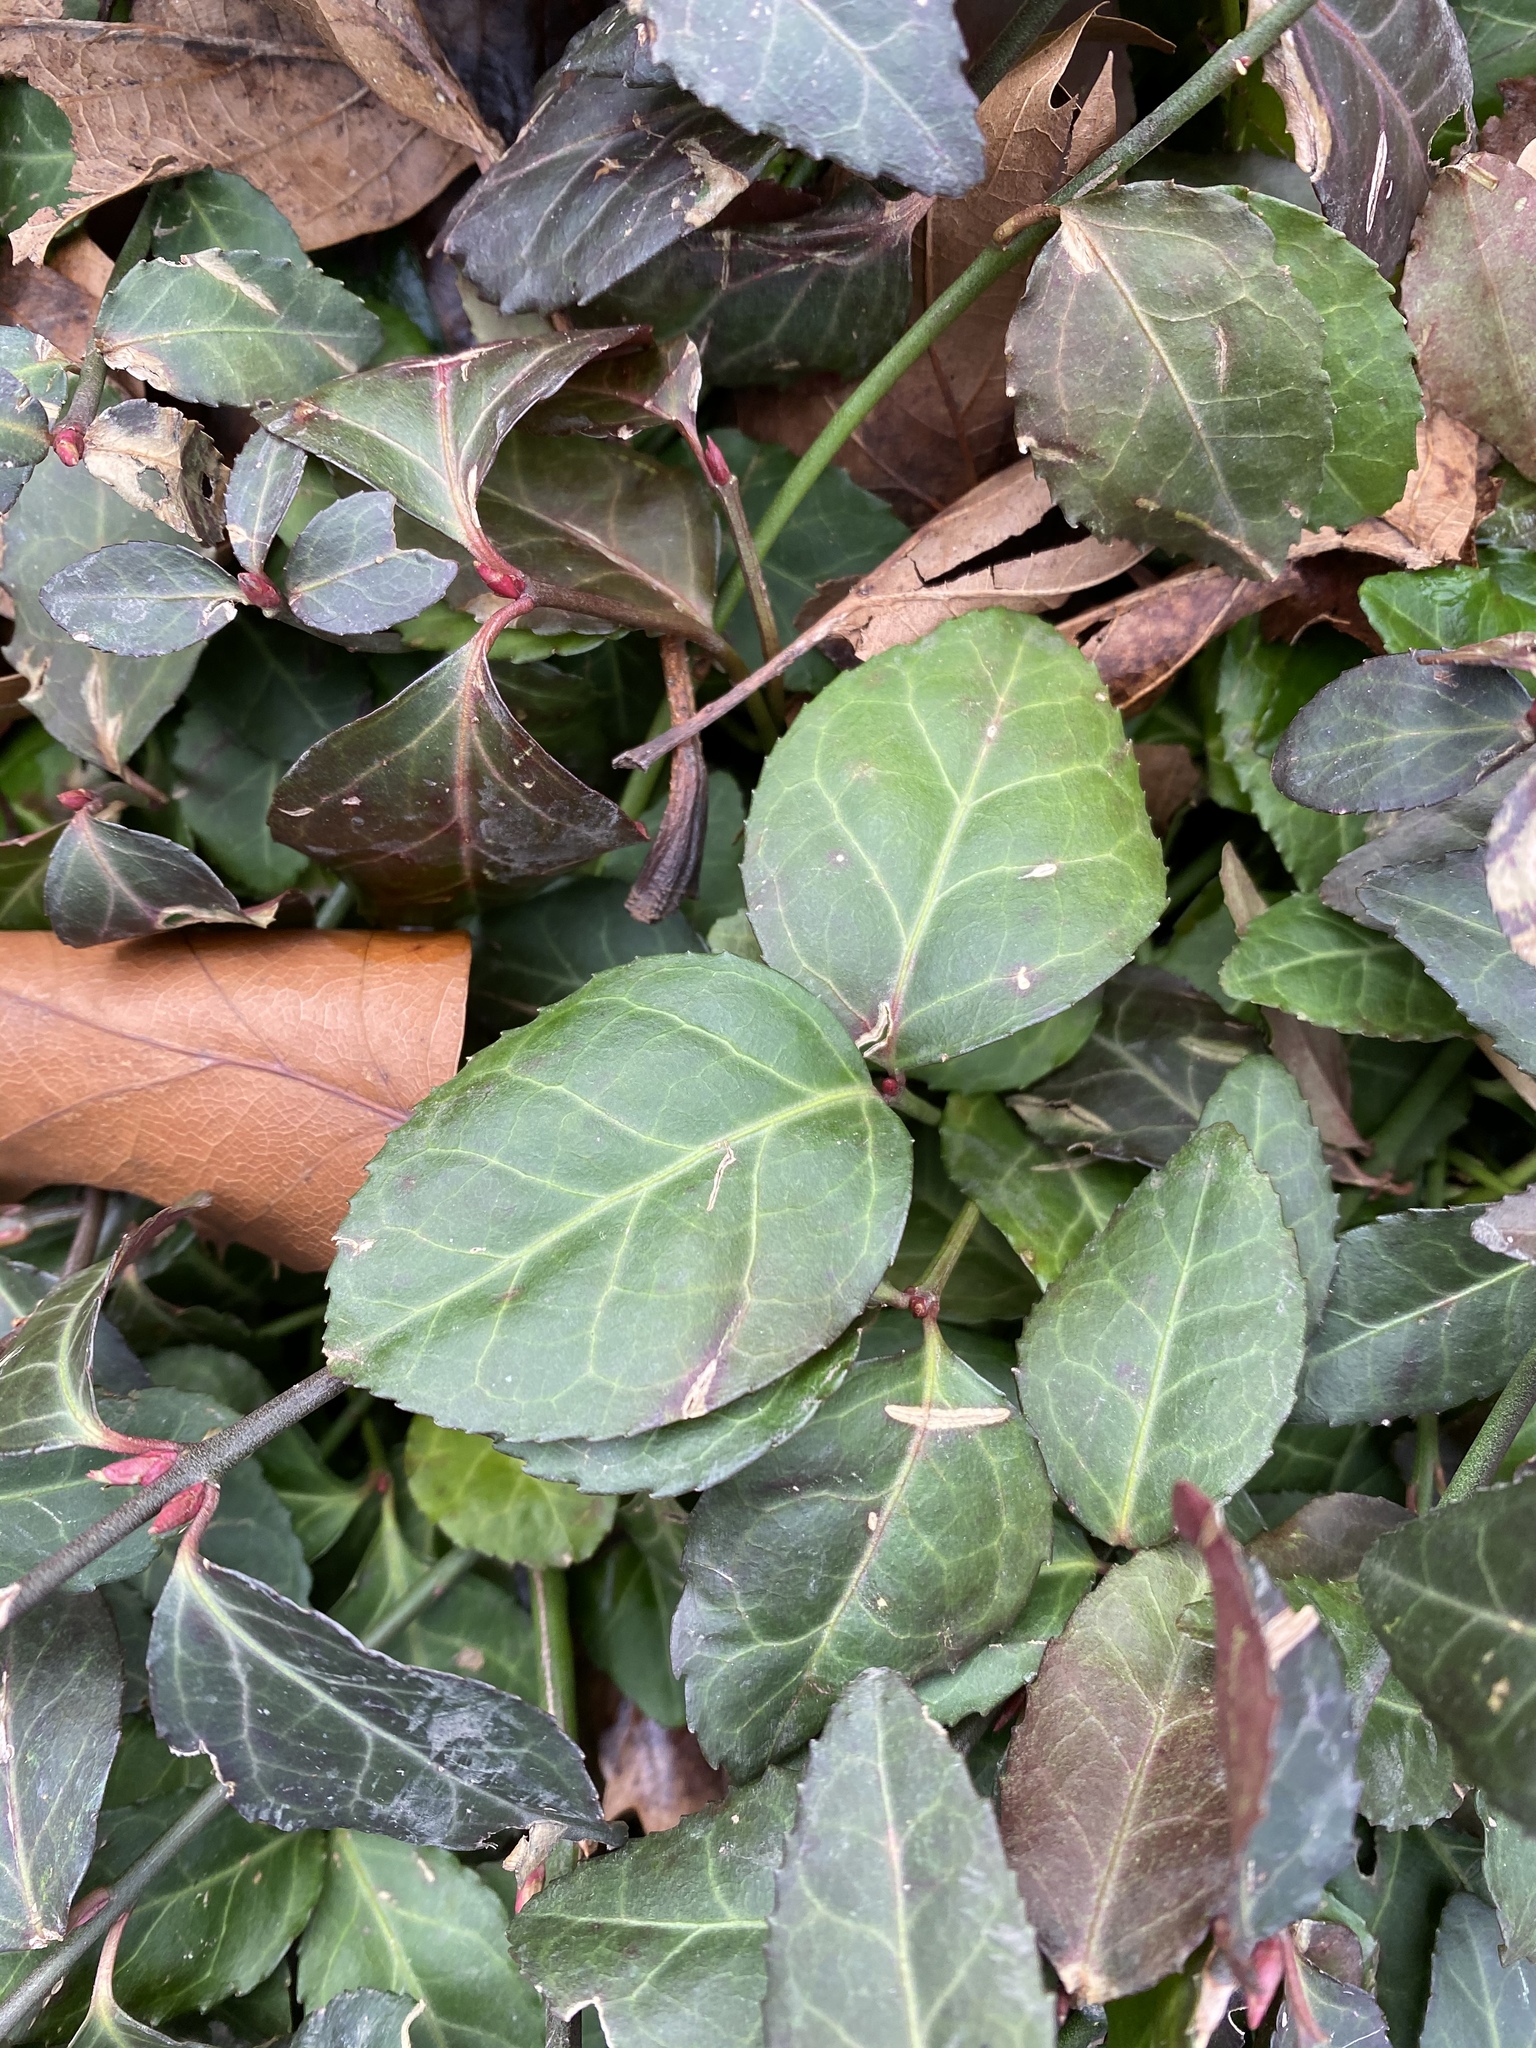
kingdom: Plantae
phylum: Tracheophyta
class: Magnoliopsida
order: Celastrales
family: Celastraceae
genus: Euonymus
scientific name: Euonymus fortunei
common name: Climbing euonymus
